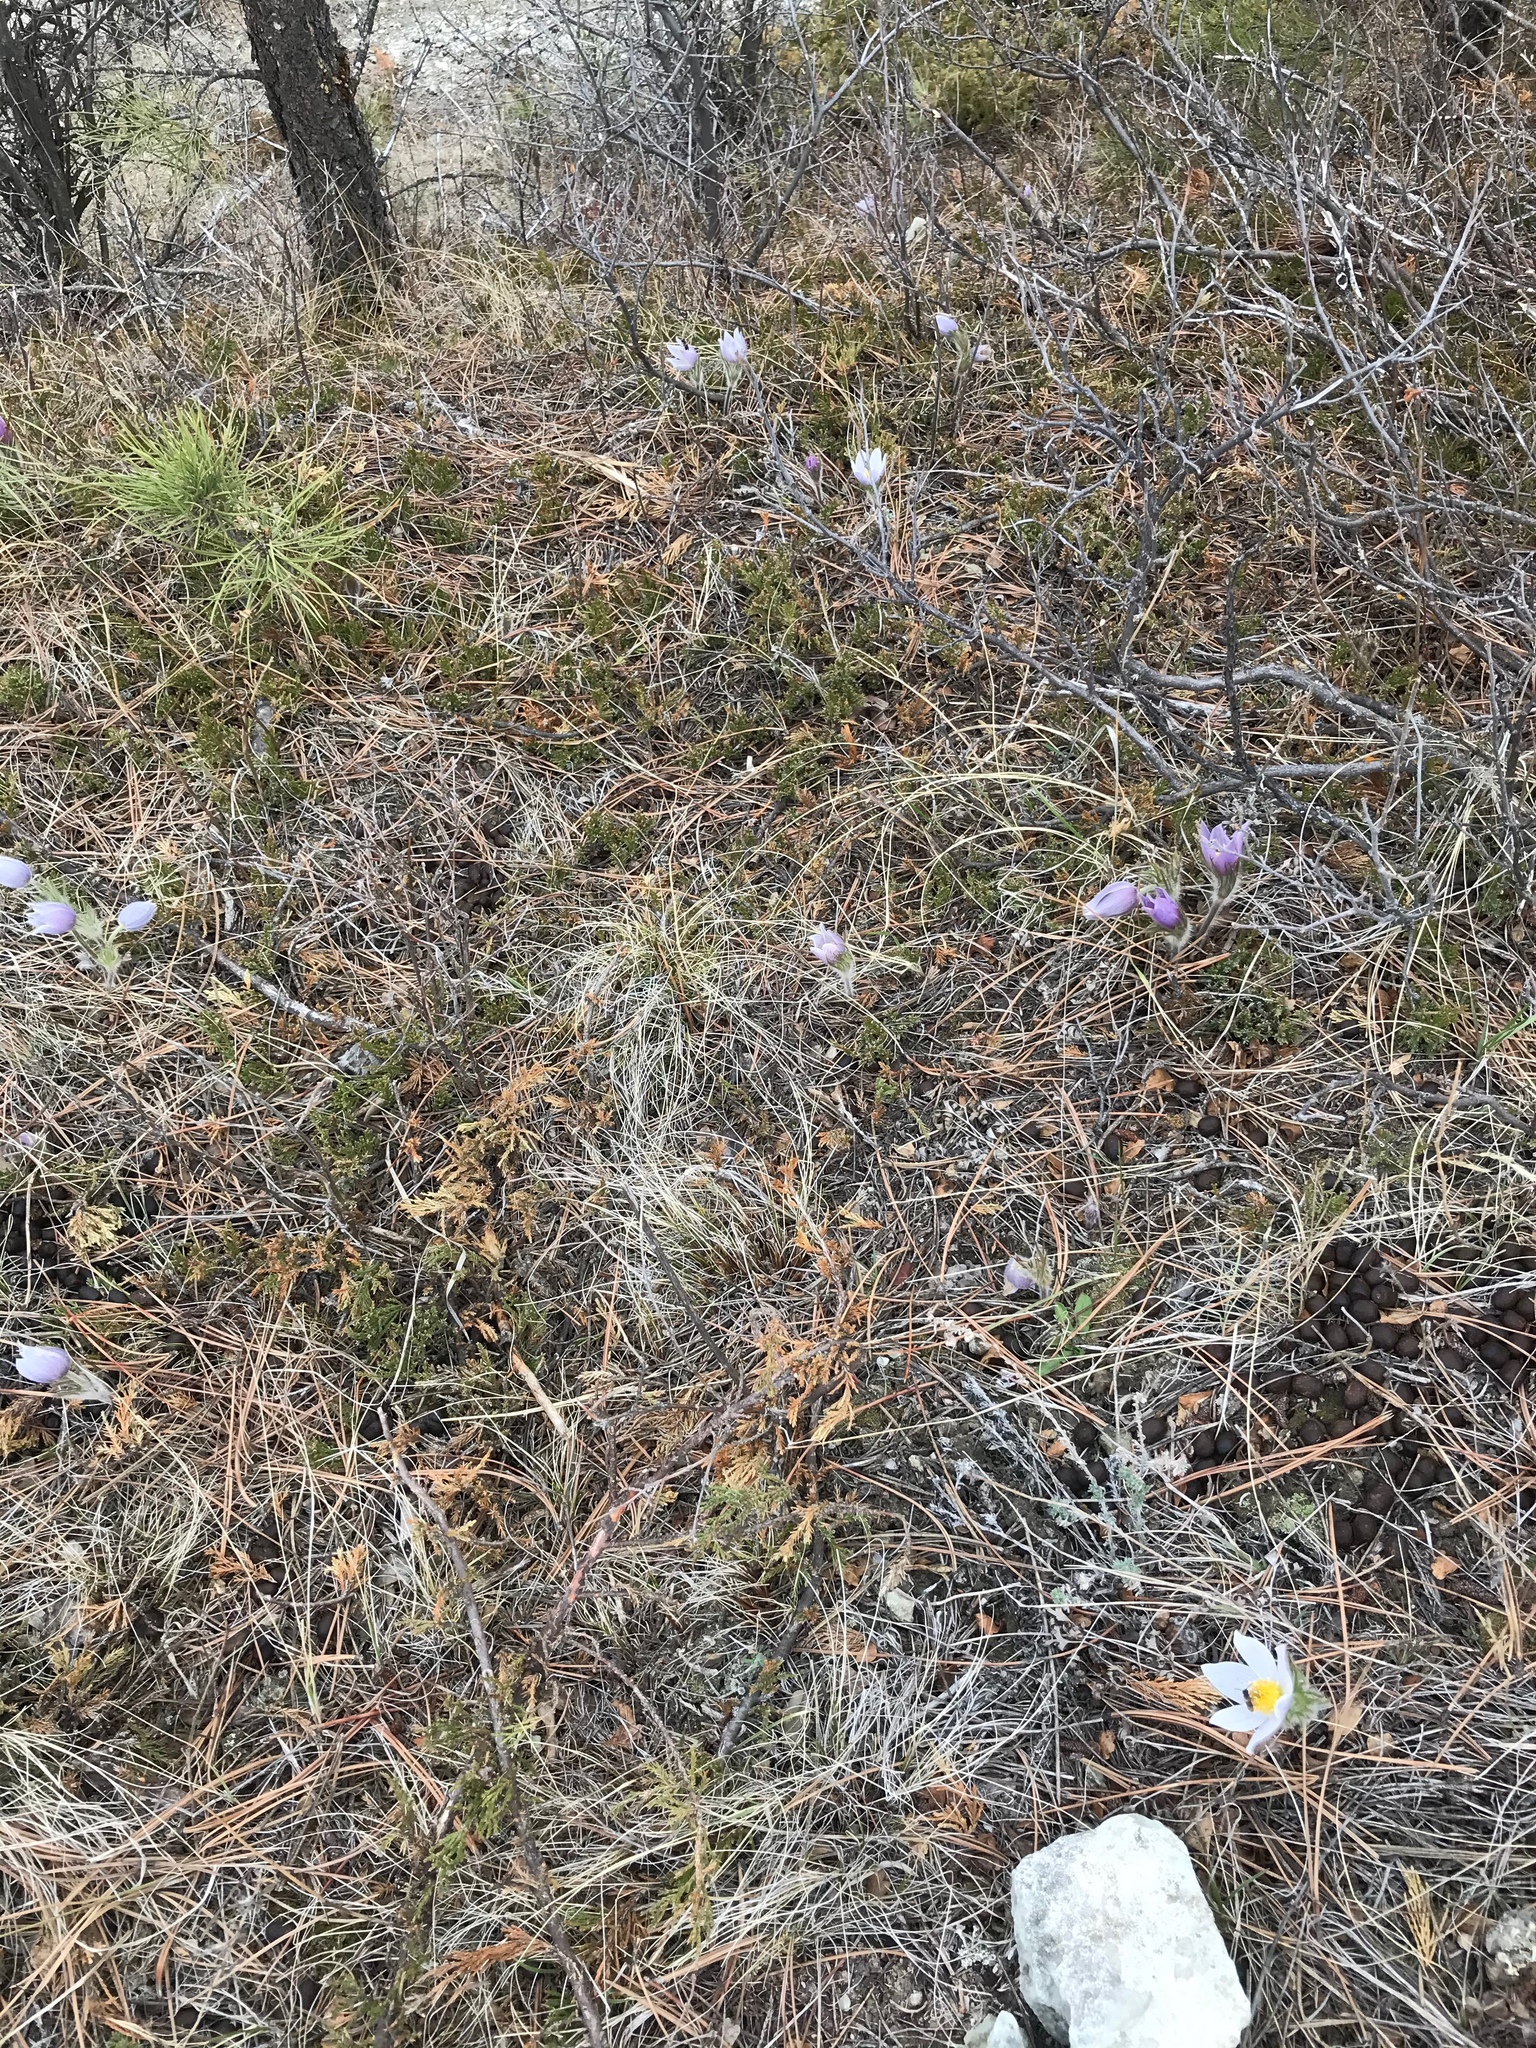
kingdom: Plantae
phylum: Tracheophyta
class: Magnoliopsida
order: Ranunculales
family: Ranunculaceae
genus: Pulsatilla
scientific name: Pulsatilla nuttalliana
